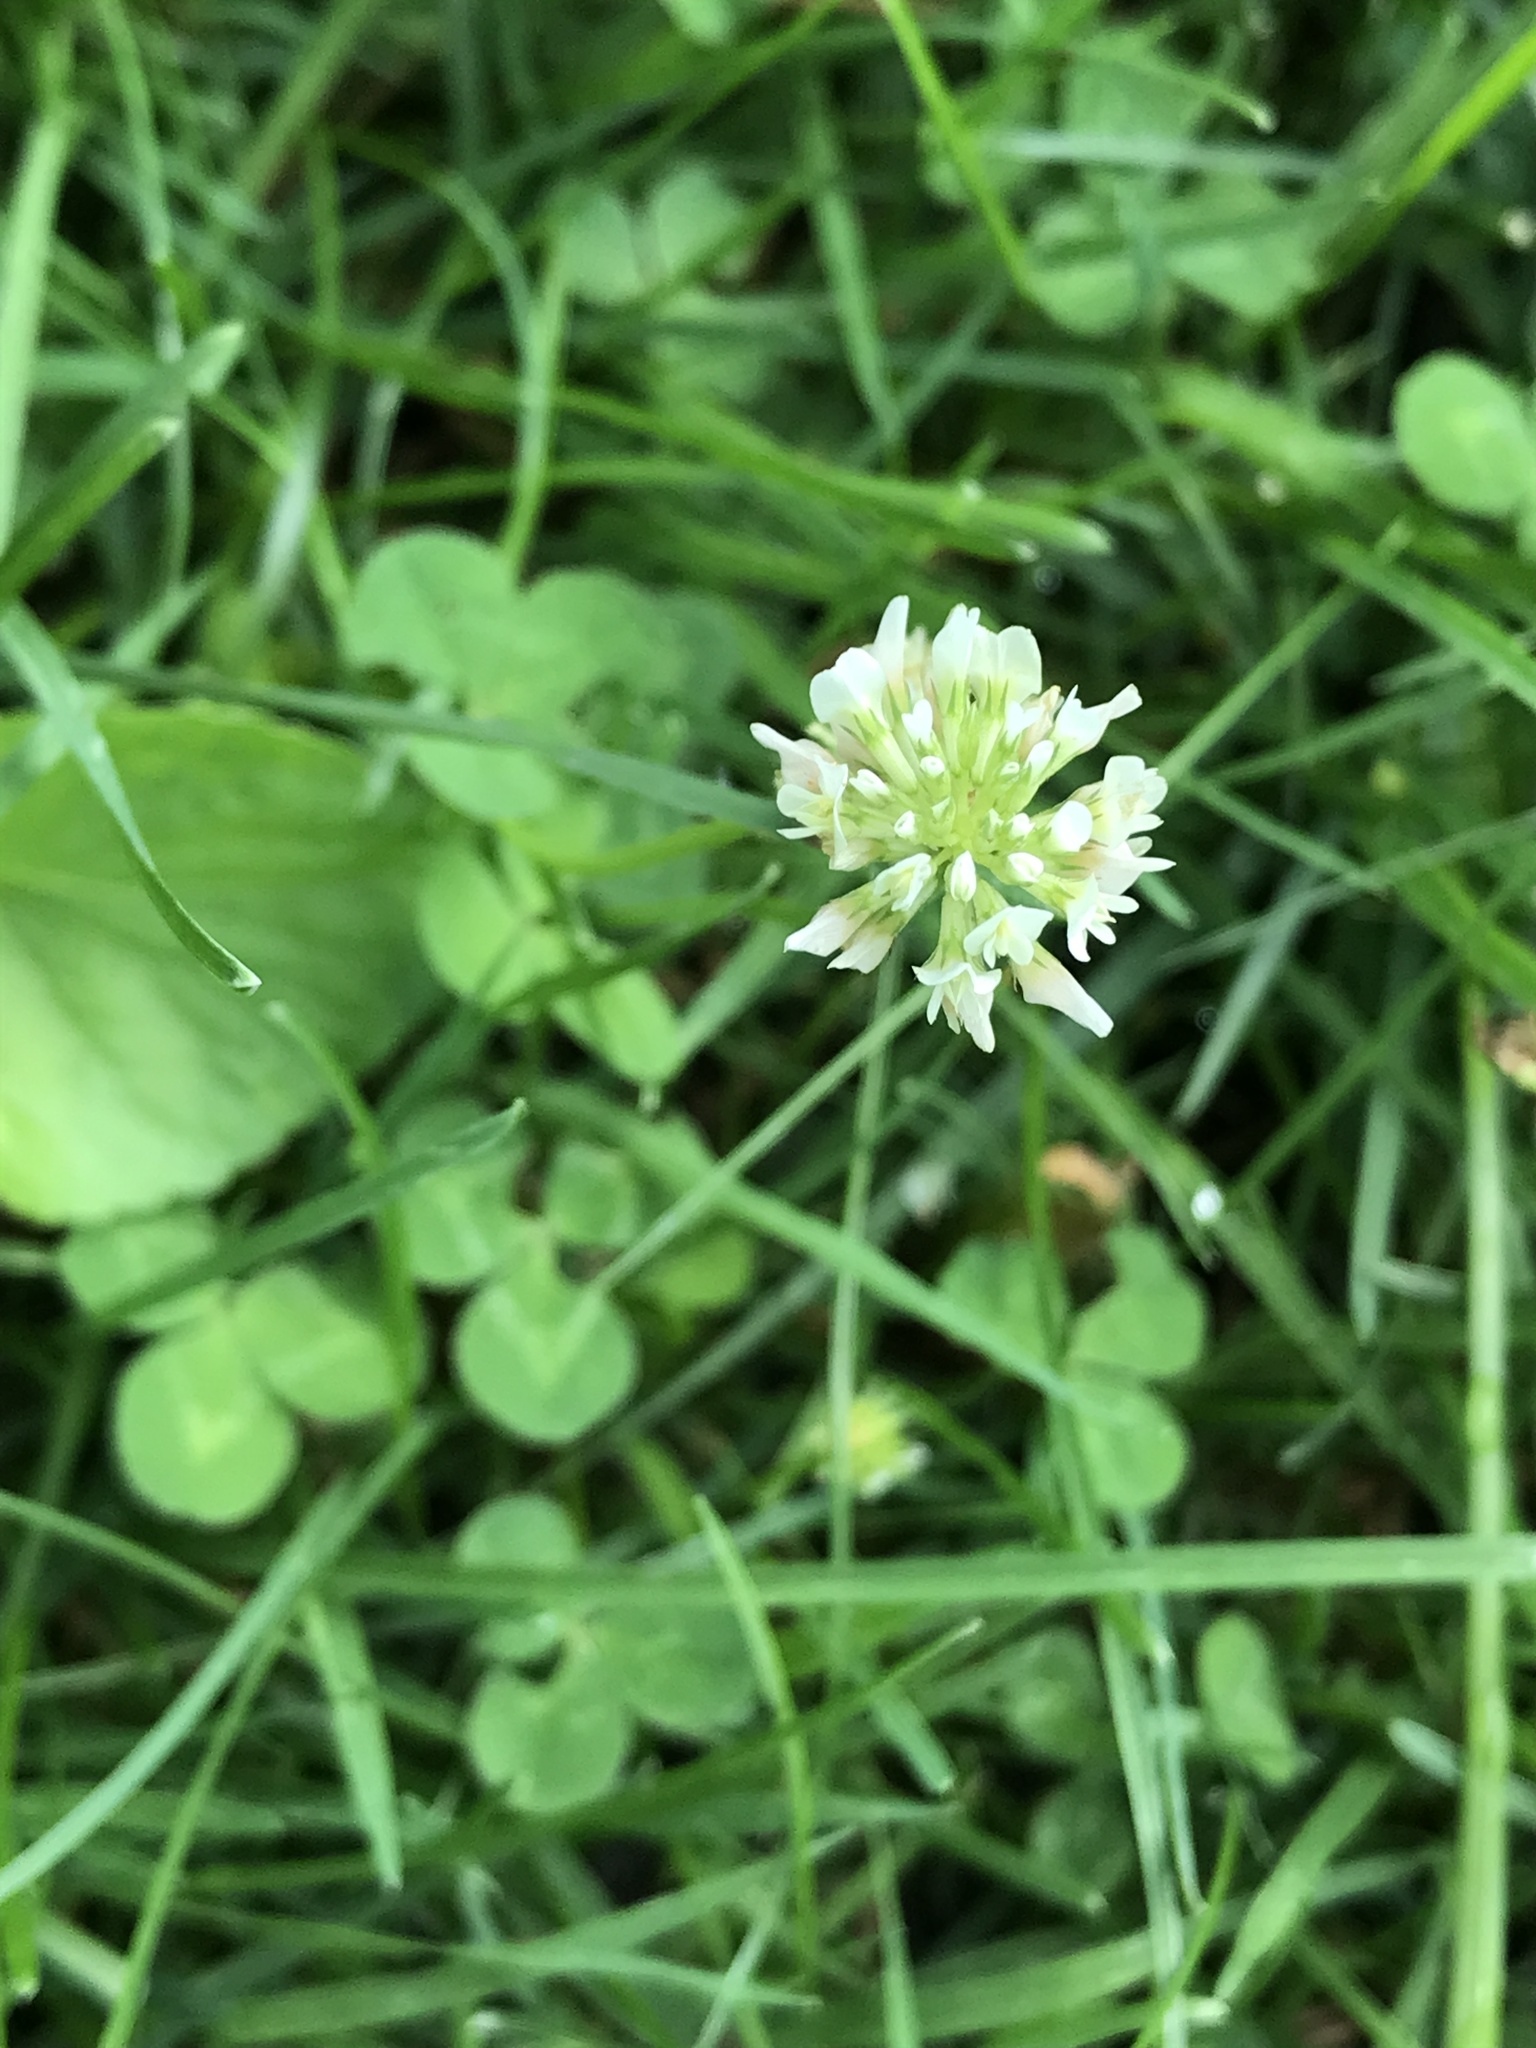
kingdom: Plantae
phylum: Tracheophyta
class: Magnoliopsida
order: Fabales
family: Fabaceae
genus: Trifolium
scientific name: Trifolium repens
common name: White clover
